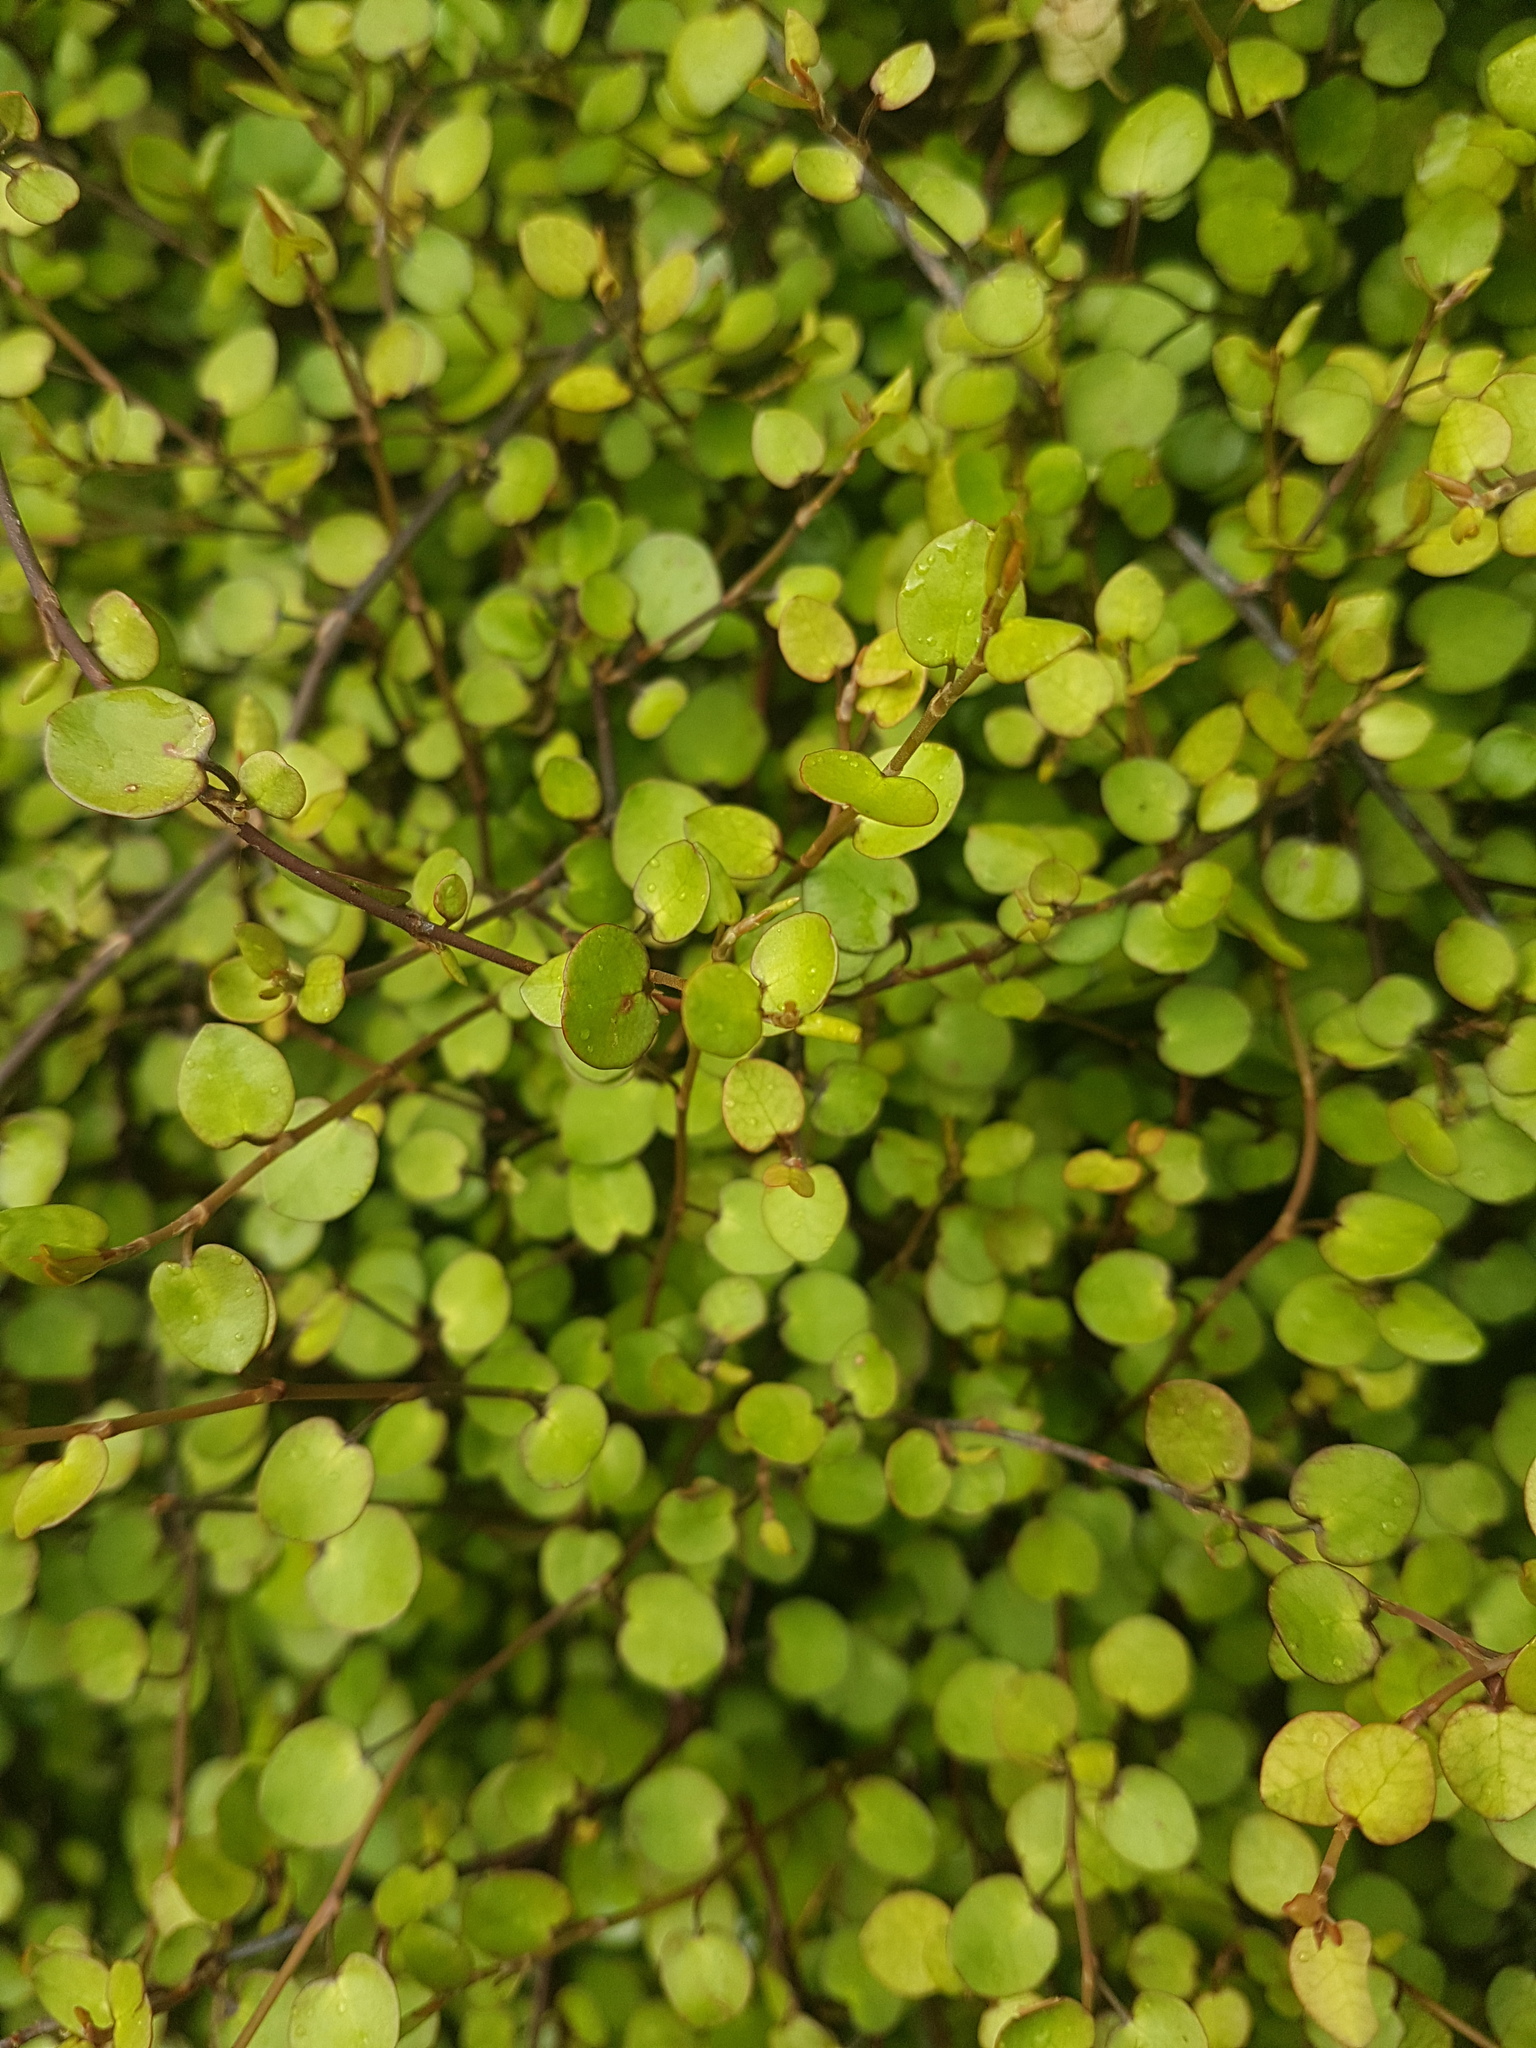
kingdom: Plantae
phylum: Tracheophyta
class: Magnoliopsida
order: Caryophyllales
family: Polygonaceae
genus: Muehlenbeckia
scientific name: Muehlenbeckia complexa
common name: Wireplant
